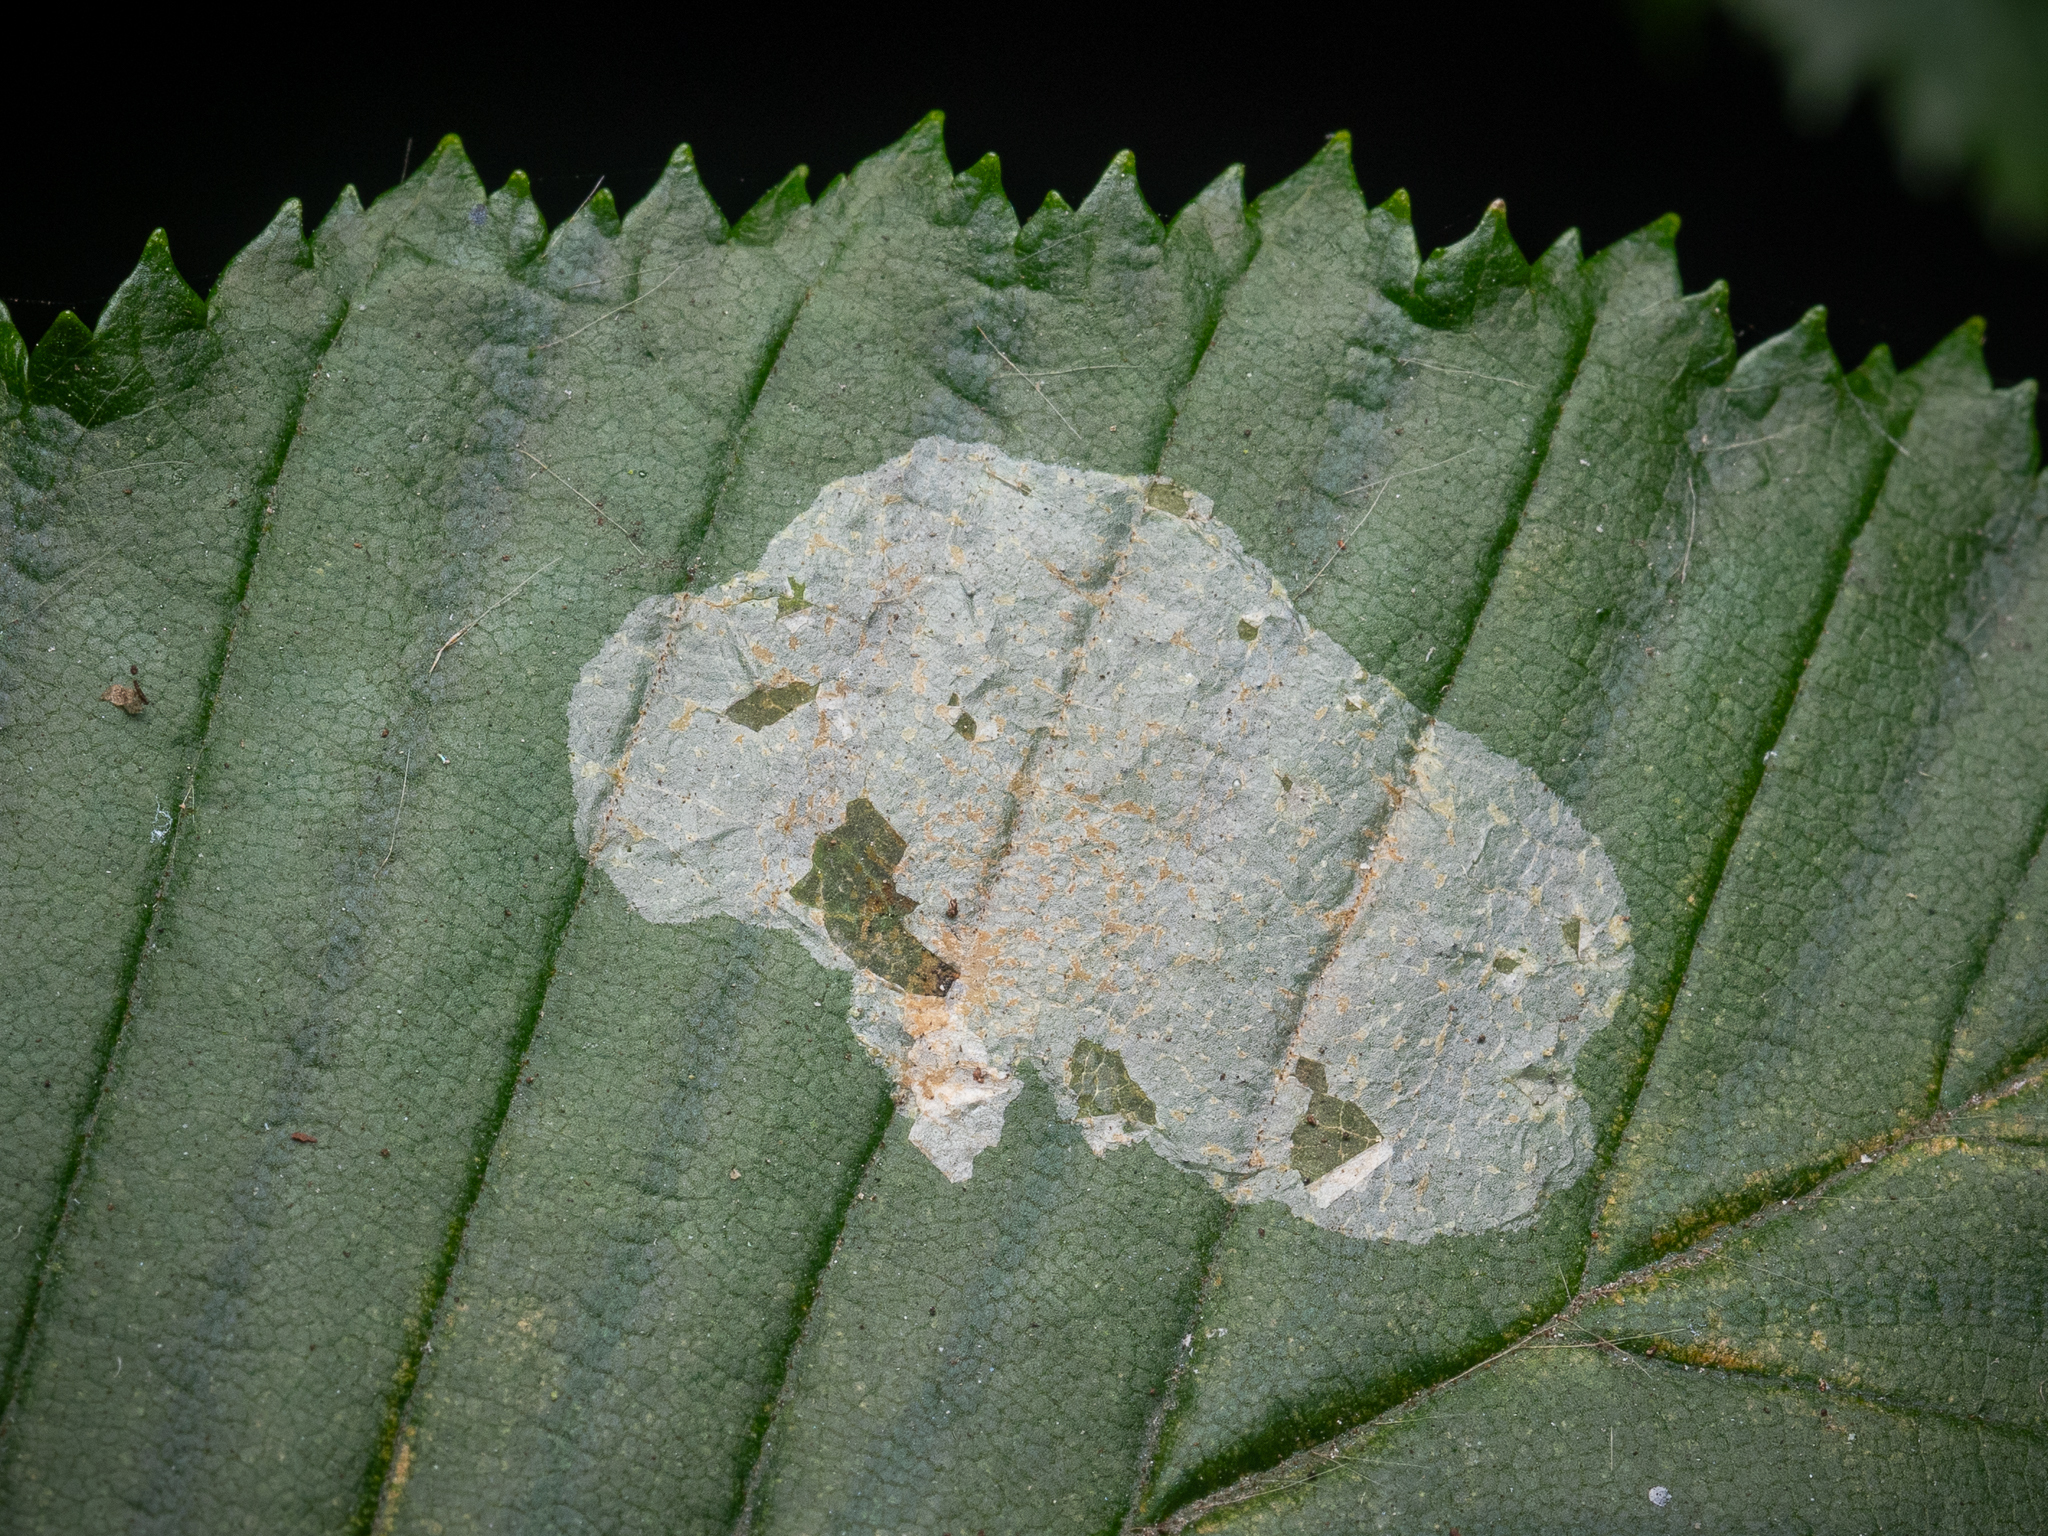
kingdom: Animalia
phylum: Arthropoda
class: Insecta
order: Lepidoptera
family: Gracillariidae
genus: Phyllonorycter
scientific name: Phyllonorycter esperella
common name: Dark hornbeam midget
